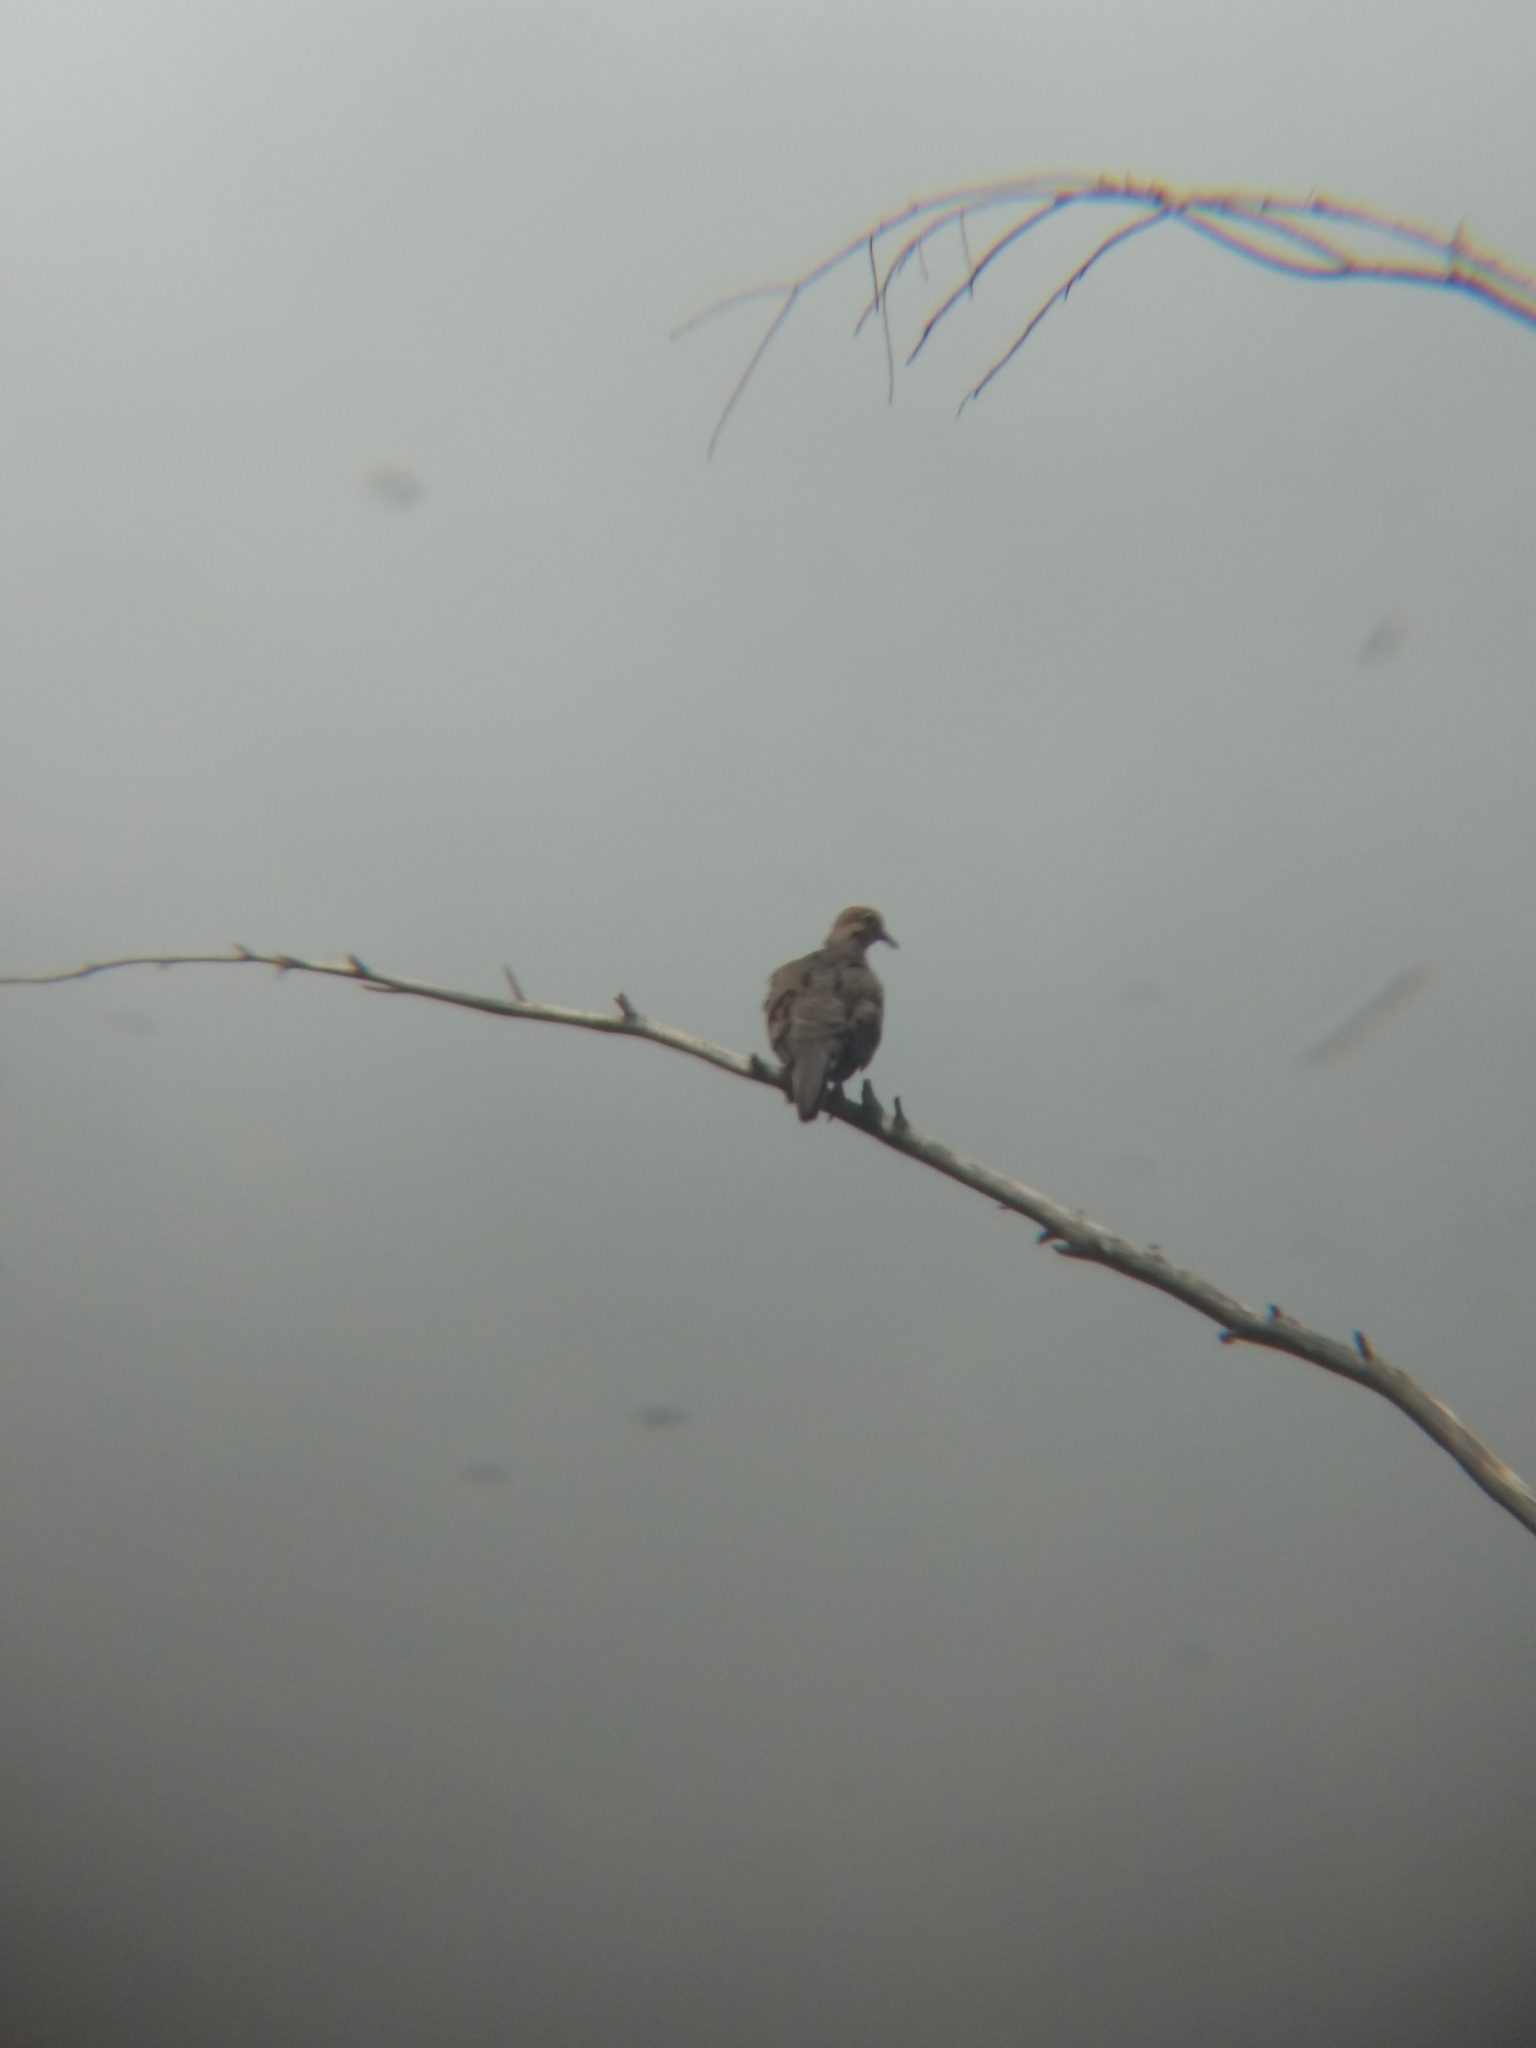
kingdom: Animalia
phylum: Chordata
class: Aves
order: Columbiformes
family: Columbidae
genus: Zenaida
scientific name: Zenaida macroura
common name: Mourning dove
